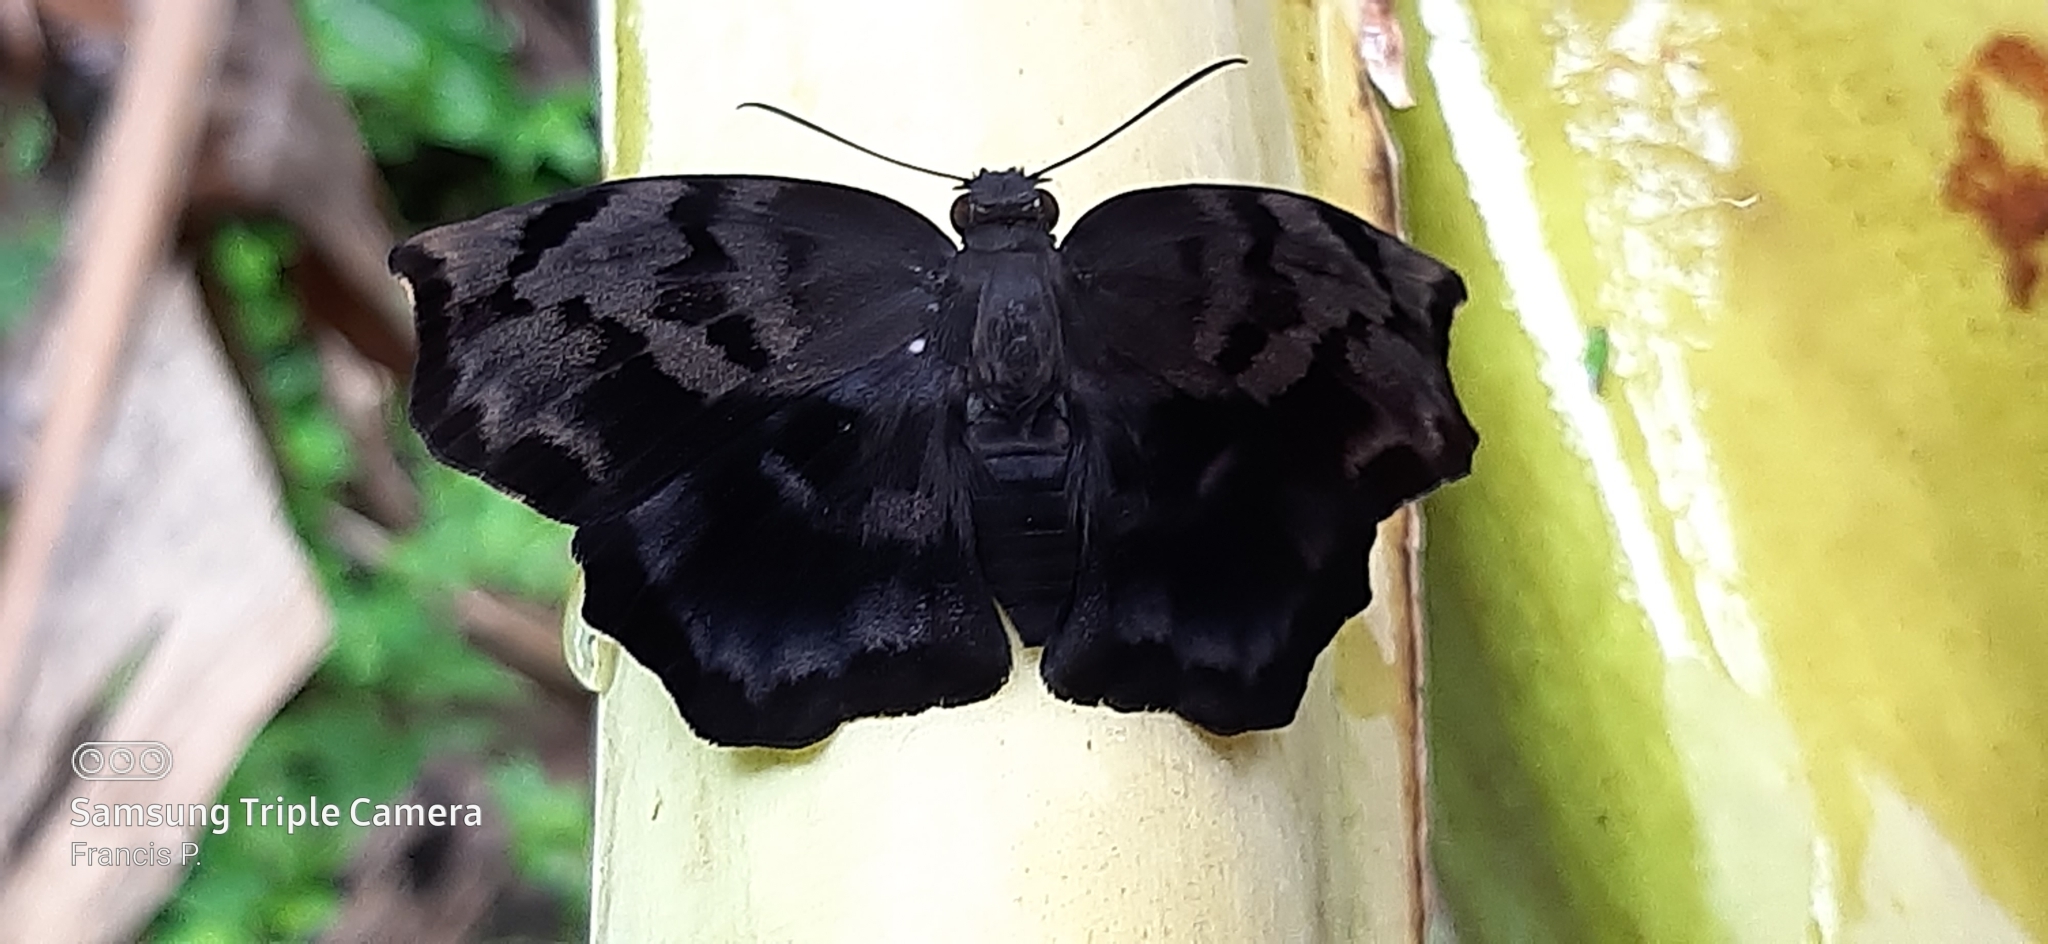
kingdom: Animalia
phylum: Arthropoda
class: Insecta
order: Lepidoptera
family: Hesperiidae
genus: Achlyodes
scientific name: Achlyodes busirus
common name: Giant sicklewing
